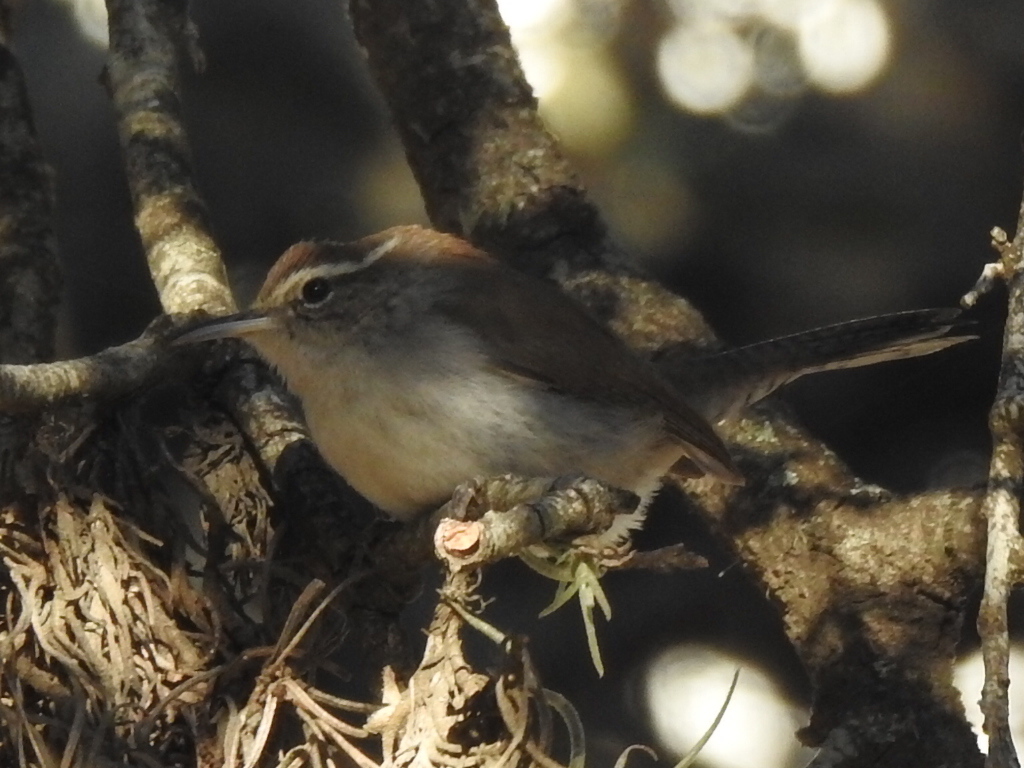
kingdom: Animalia
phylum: Chordata
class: Aves
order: Passeriformes
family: Troglodytidae
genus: Thryomanes
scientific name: Thryomanes bewickii
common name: Bewick's wren
